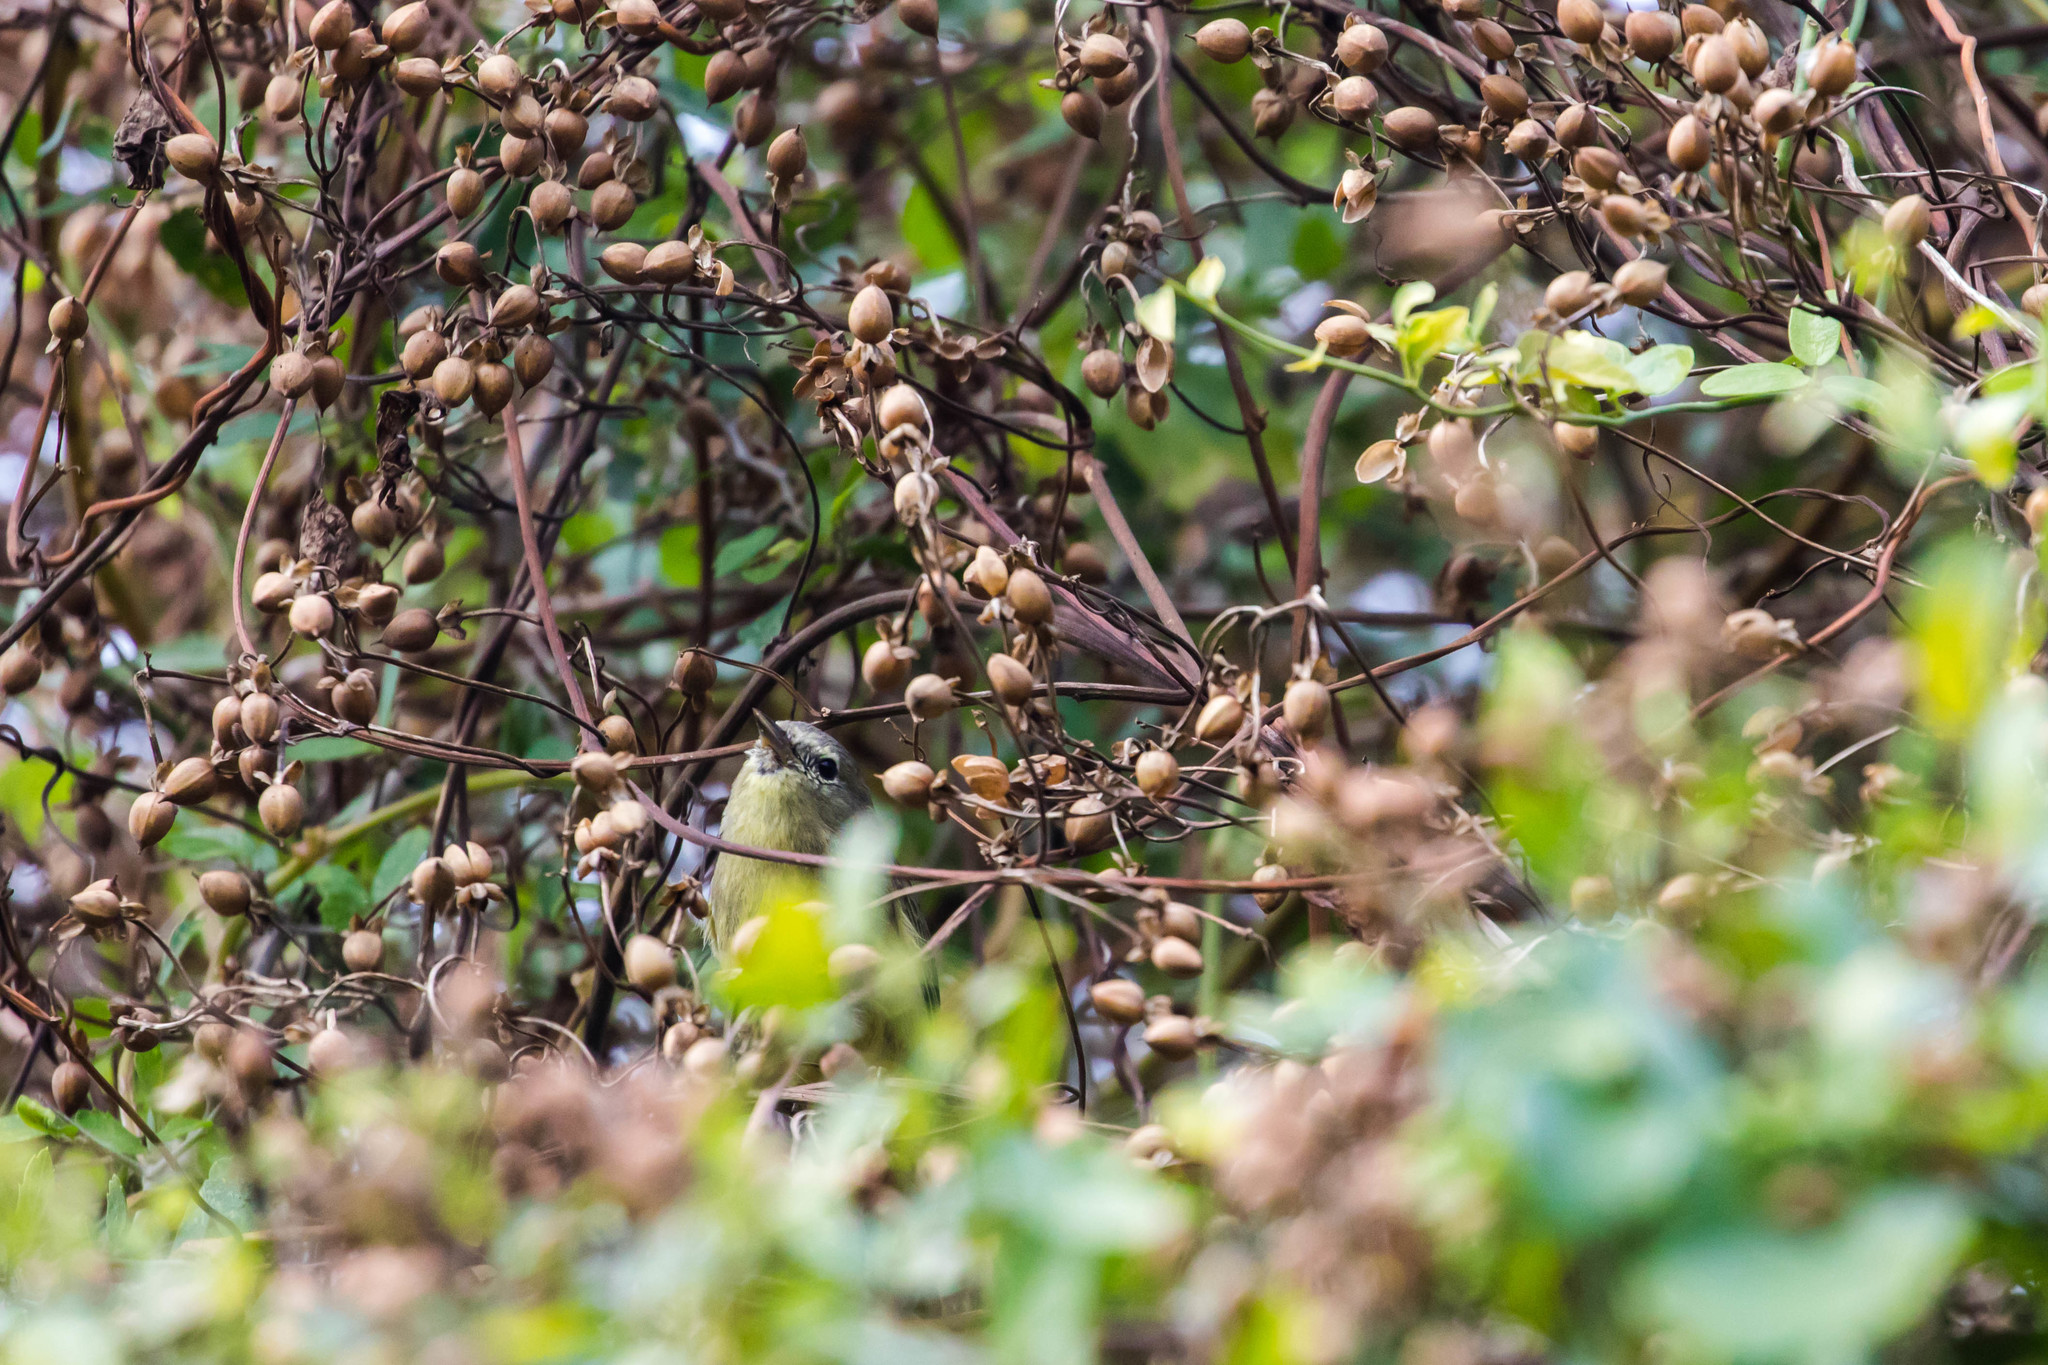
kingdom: Animalia
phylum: Chordata
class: Aves
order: Passeriformes
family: Parulidae
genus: Leiothlypis
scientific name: Leiothlypis celata
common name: Orange-crowned warbler
